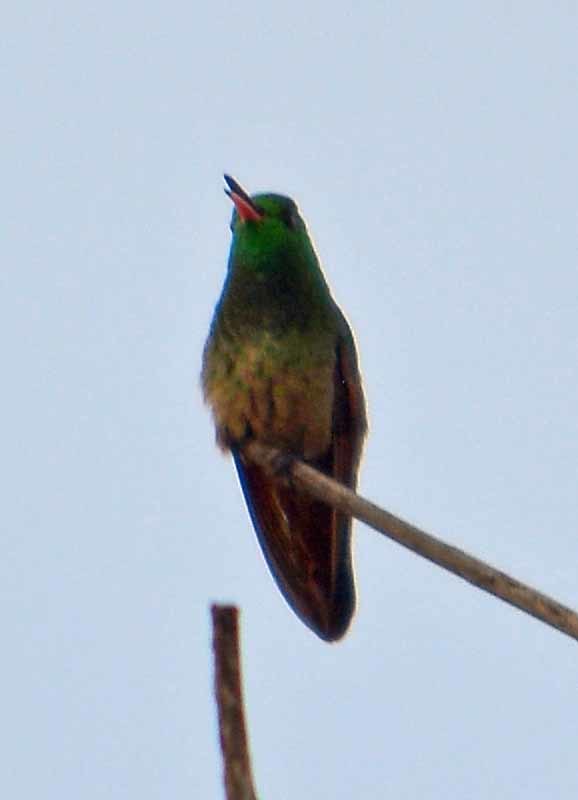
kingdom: Animalia
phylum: Chordata
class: Aves
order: Apodiformes
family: Trochilidae
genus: Saucerottia
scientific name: Saucerottia beryllina
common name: Berylline hummingbird
